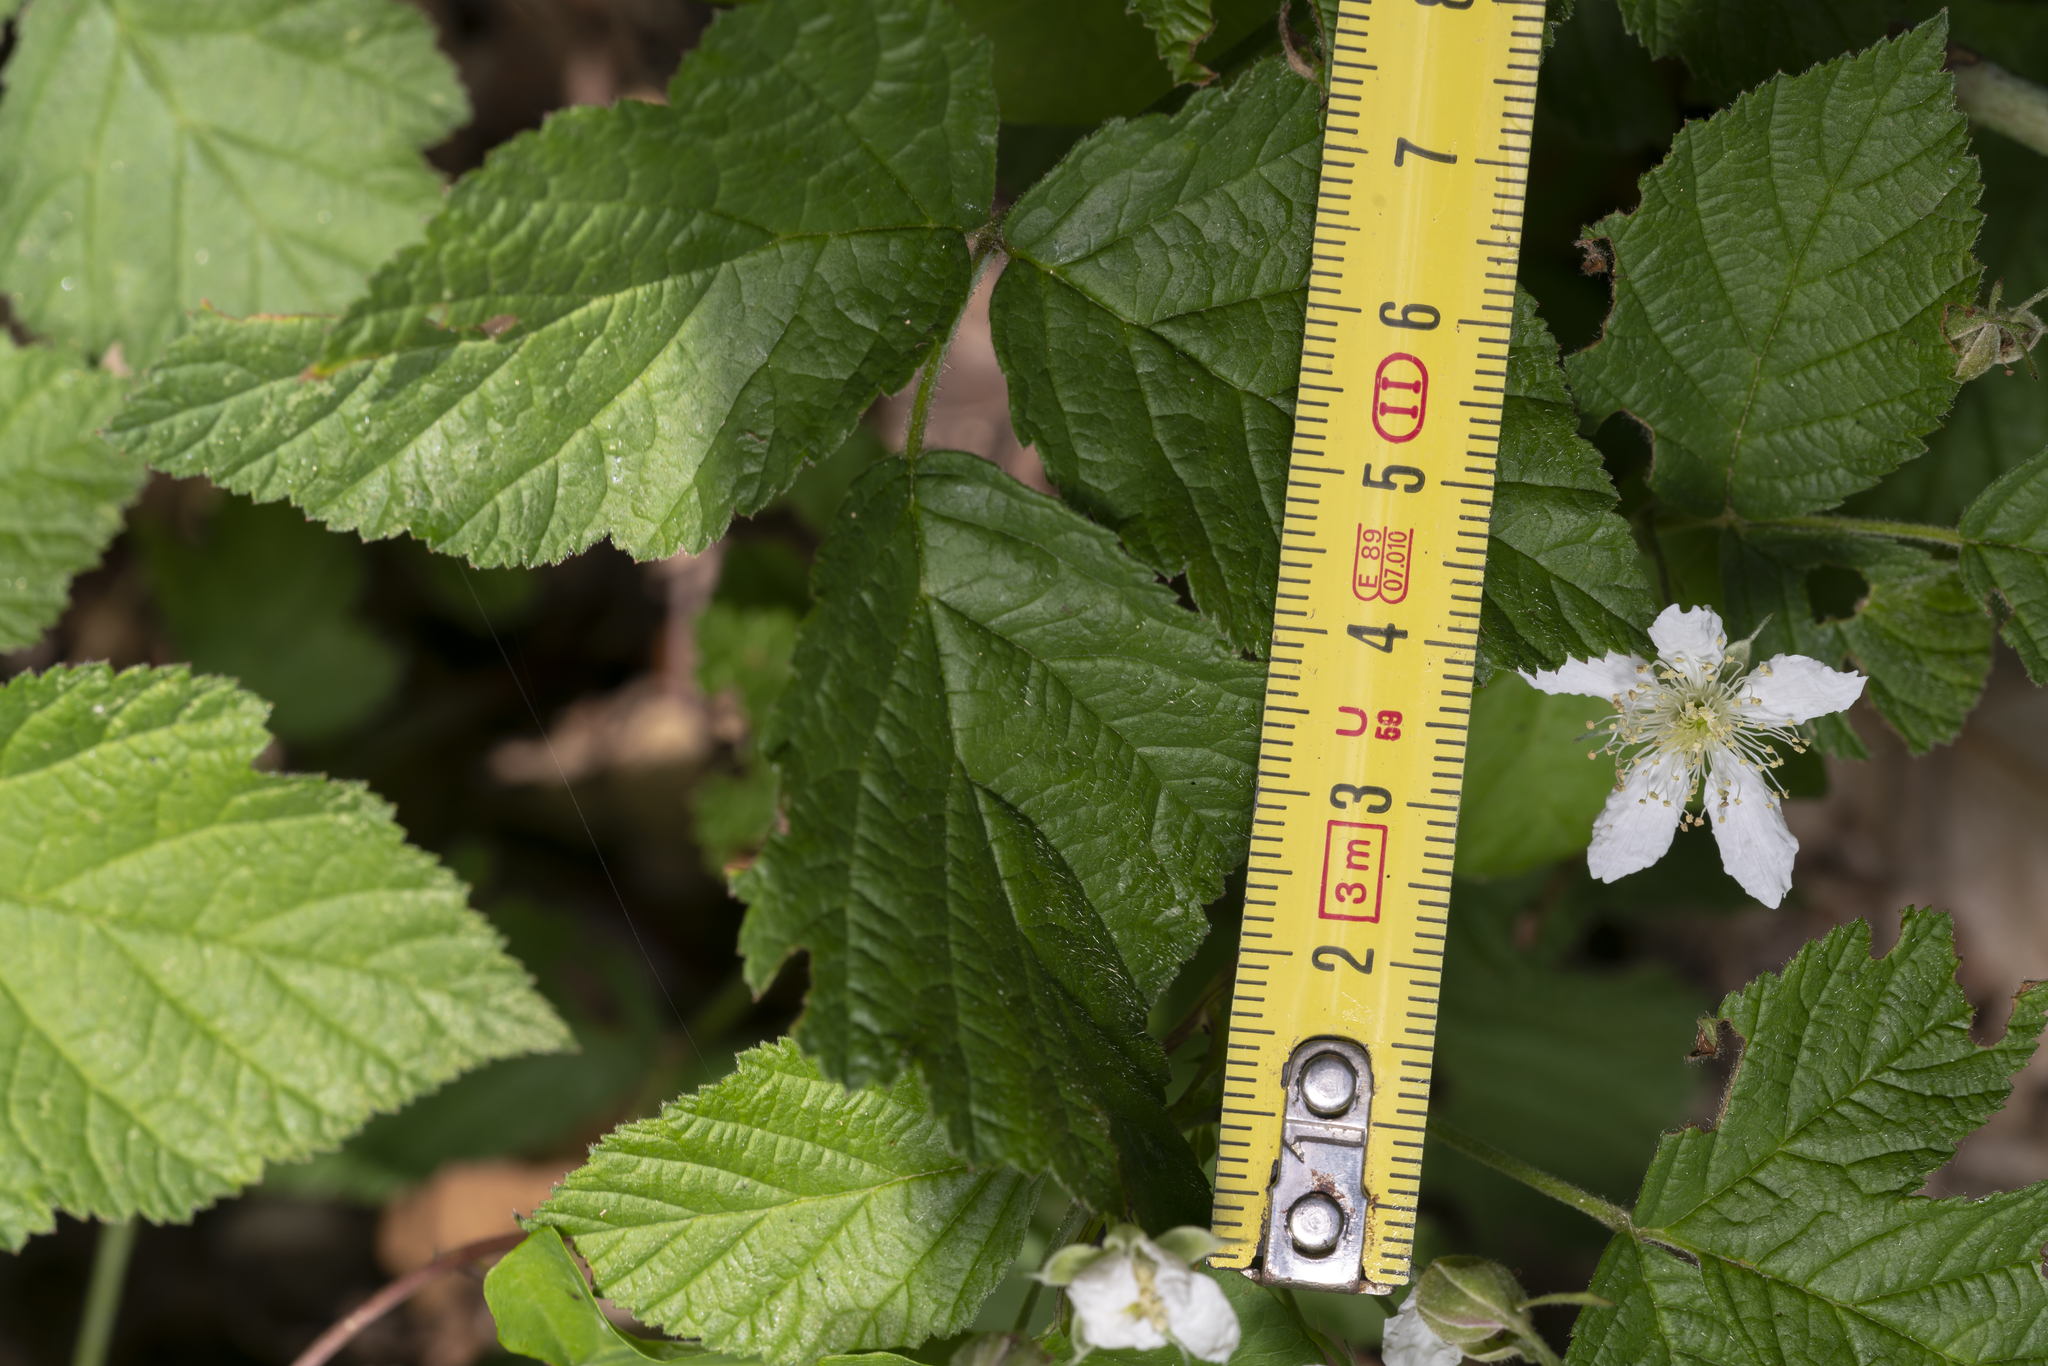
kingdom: Plantae
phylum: Tracheophyta
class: Magnoliopsida
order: Rosales
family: Rosaceae
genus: Rubus
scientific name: Rubus caesius
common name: Dewberry
